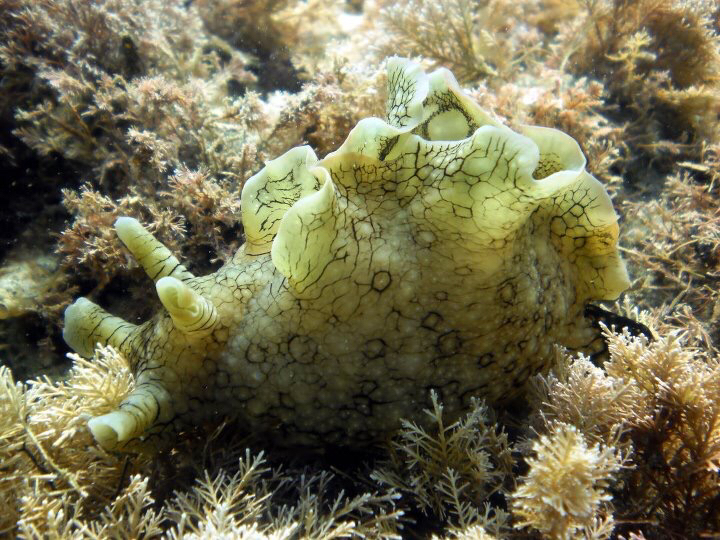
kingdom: Animalia
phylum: Mollusca
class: Gastropoda
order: Aplysiida
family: Aplysiidae
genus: Aplysia
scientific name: Aplysia argus
